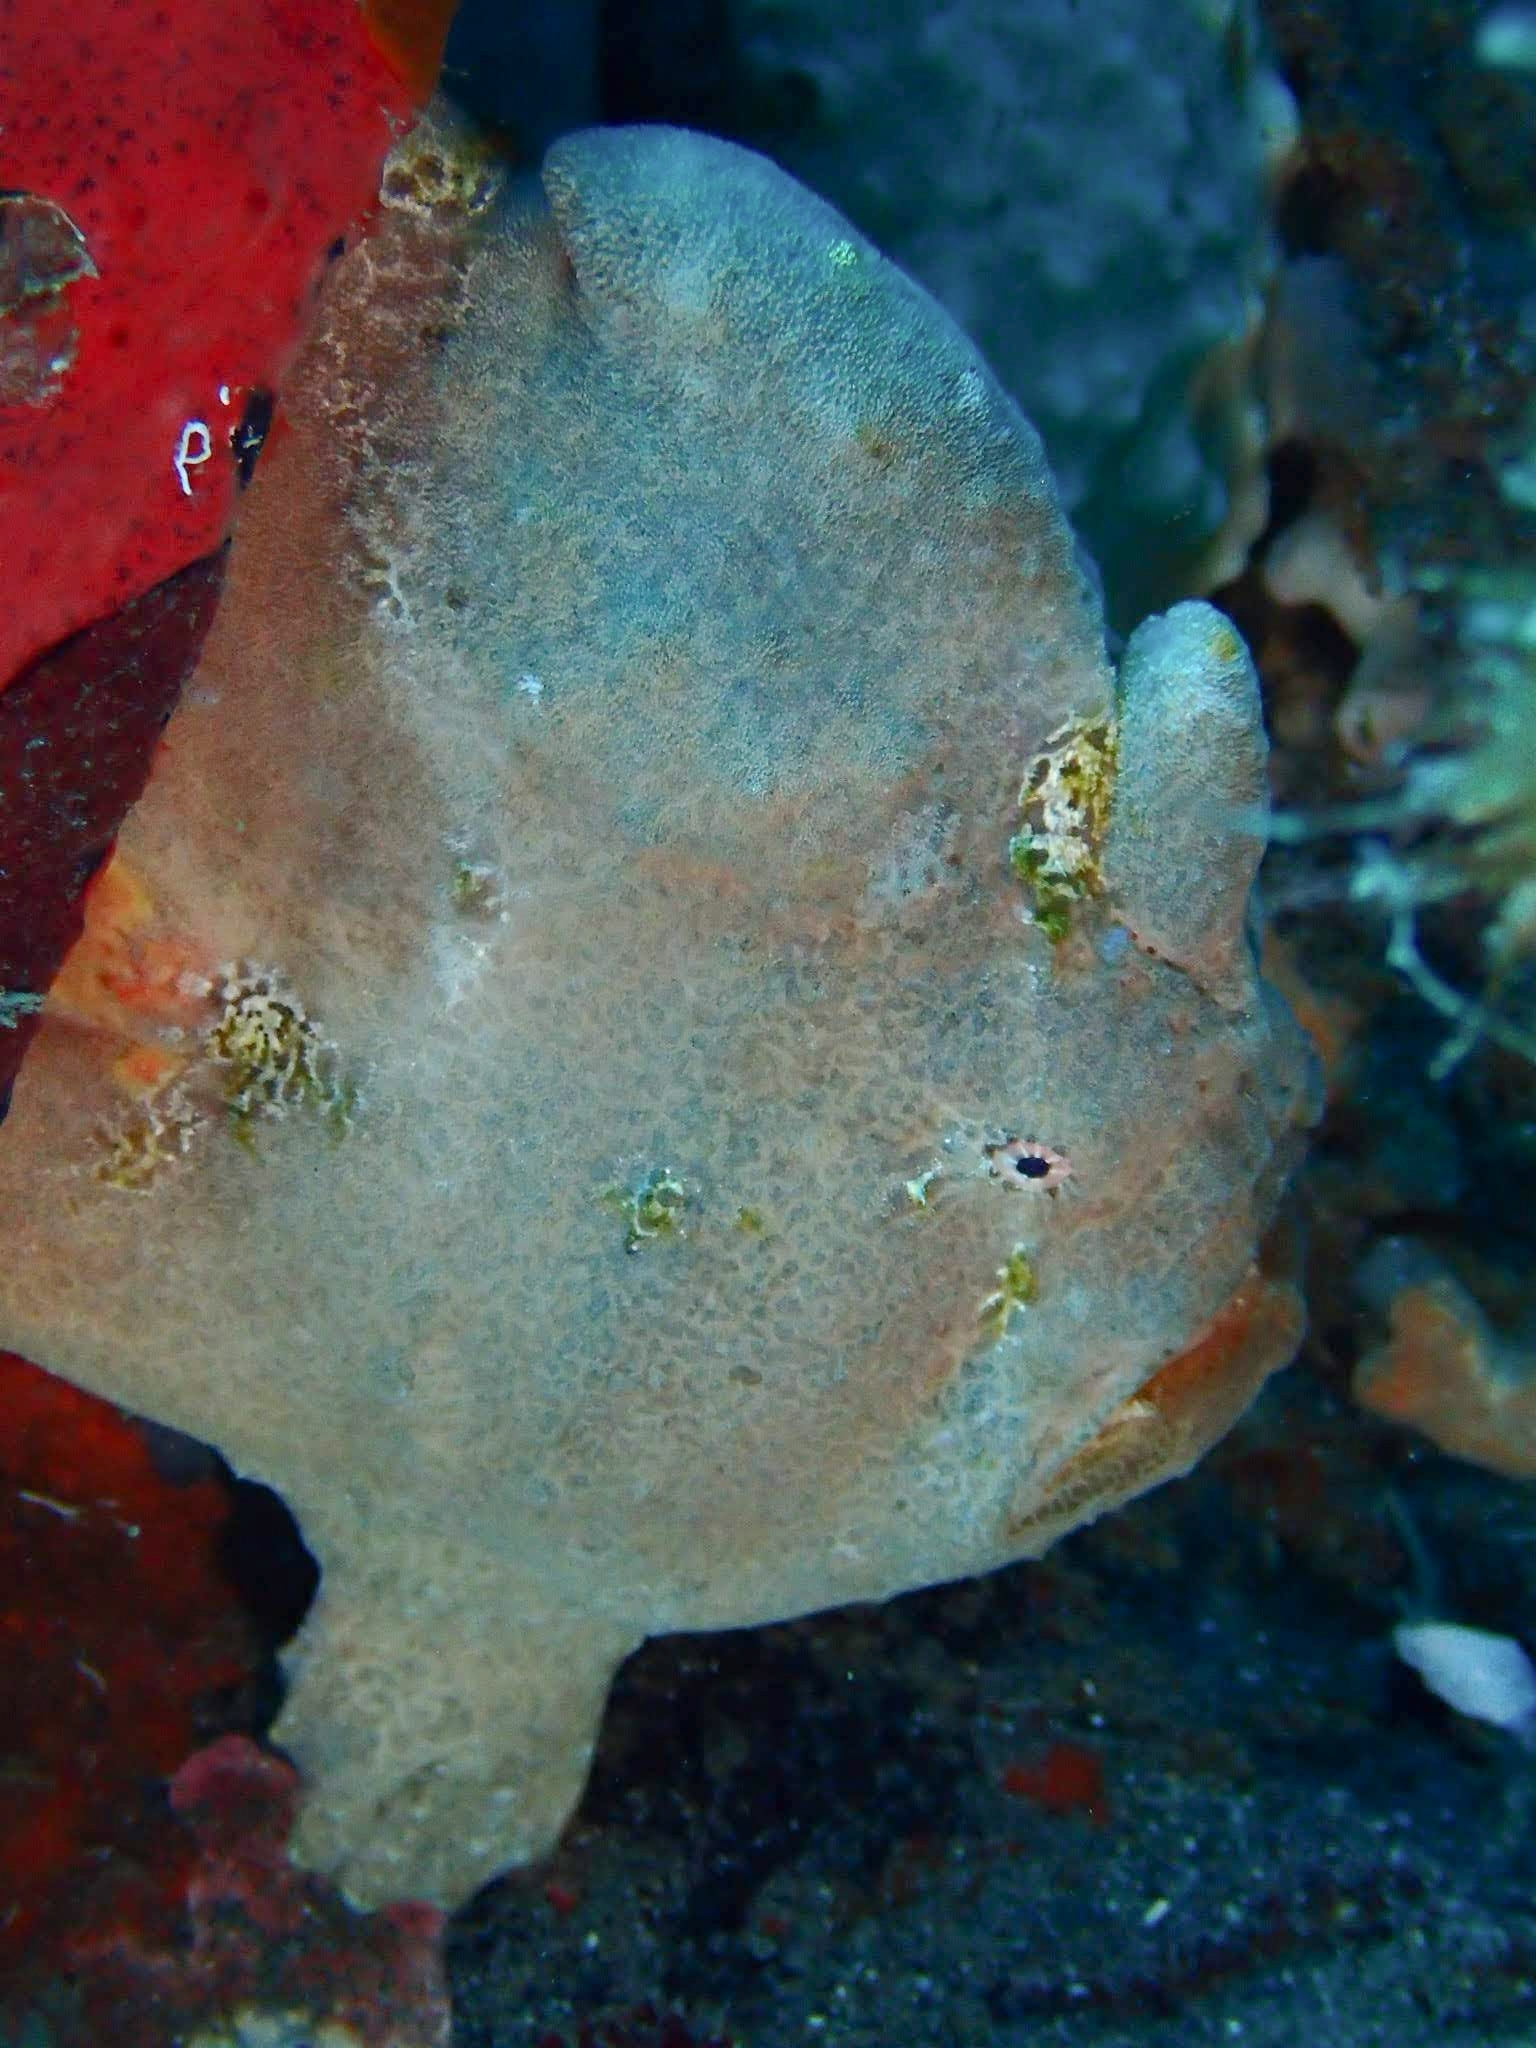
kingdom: Animalia
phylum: Chordata
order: Lophiiformes
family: Antennariidae
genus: Antennarius
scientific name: Antennarius commerson
